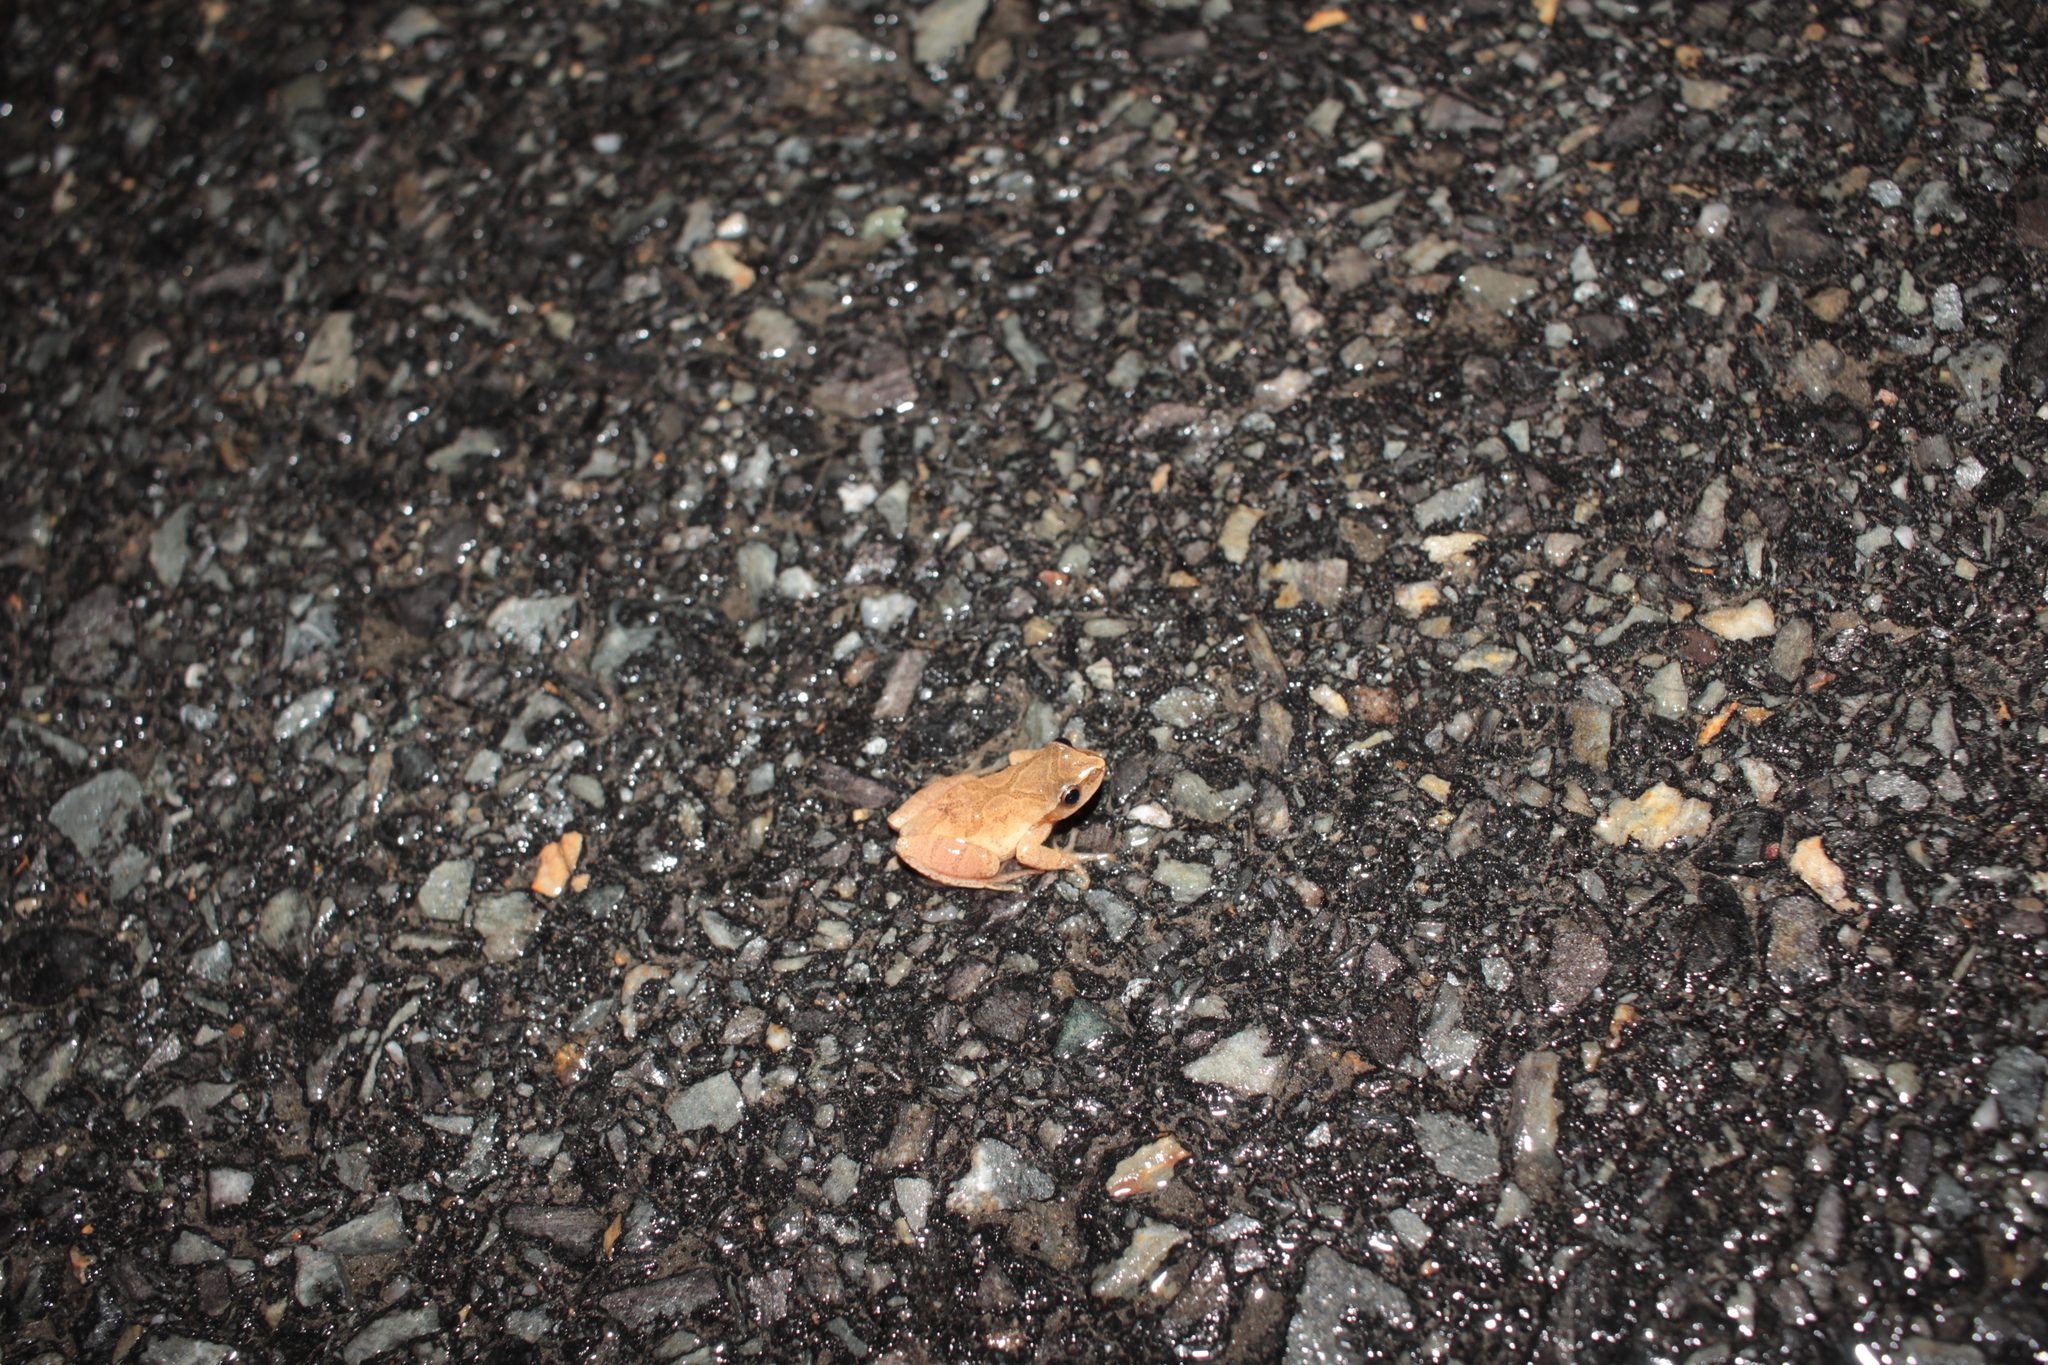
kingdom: Animalia
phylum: Chordata
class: Amphibia
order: Anura
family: Hylidae
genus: Pseudacris
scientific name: Pseudacris crucifer
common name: Spring peeper
